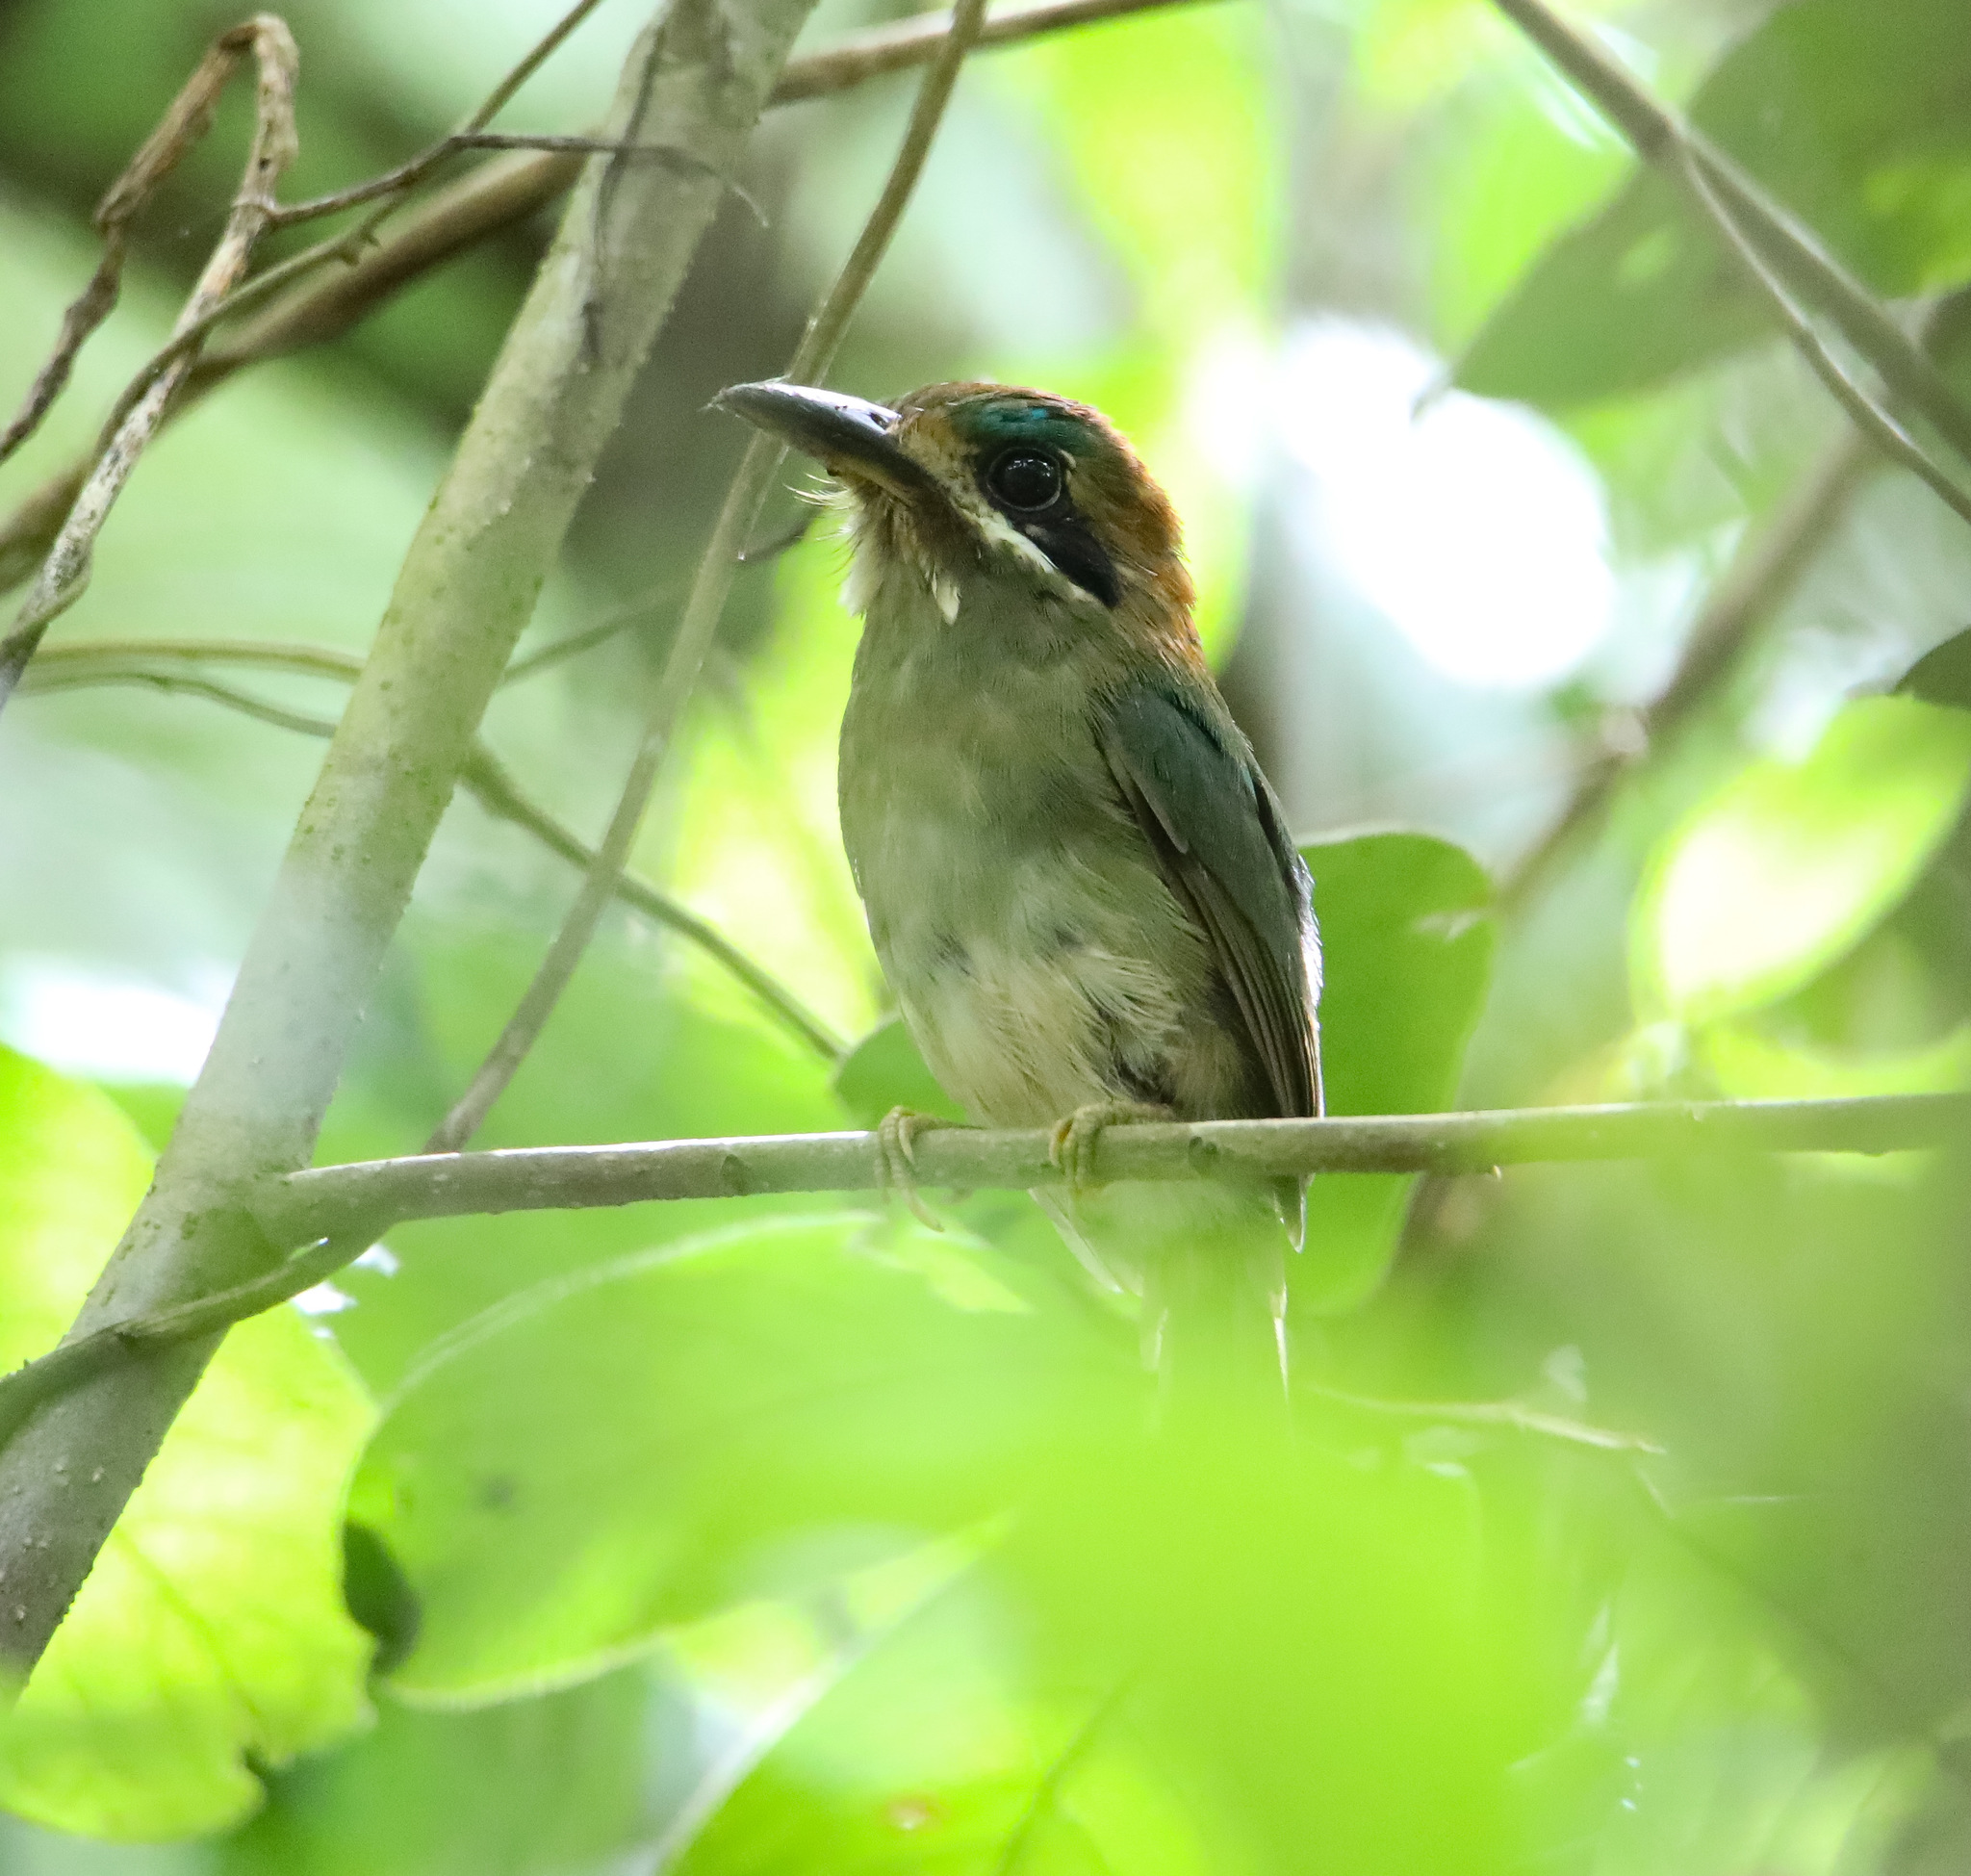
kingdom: Animalia
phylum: Chordata
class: Aves
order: Coraciiformes
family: Momotidae
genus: Hylomanes
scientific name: Hylomanes momotula
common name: Tody motmot
